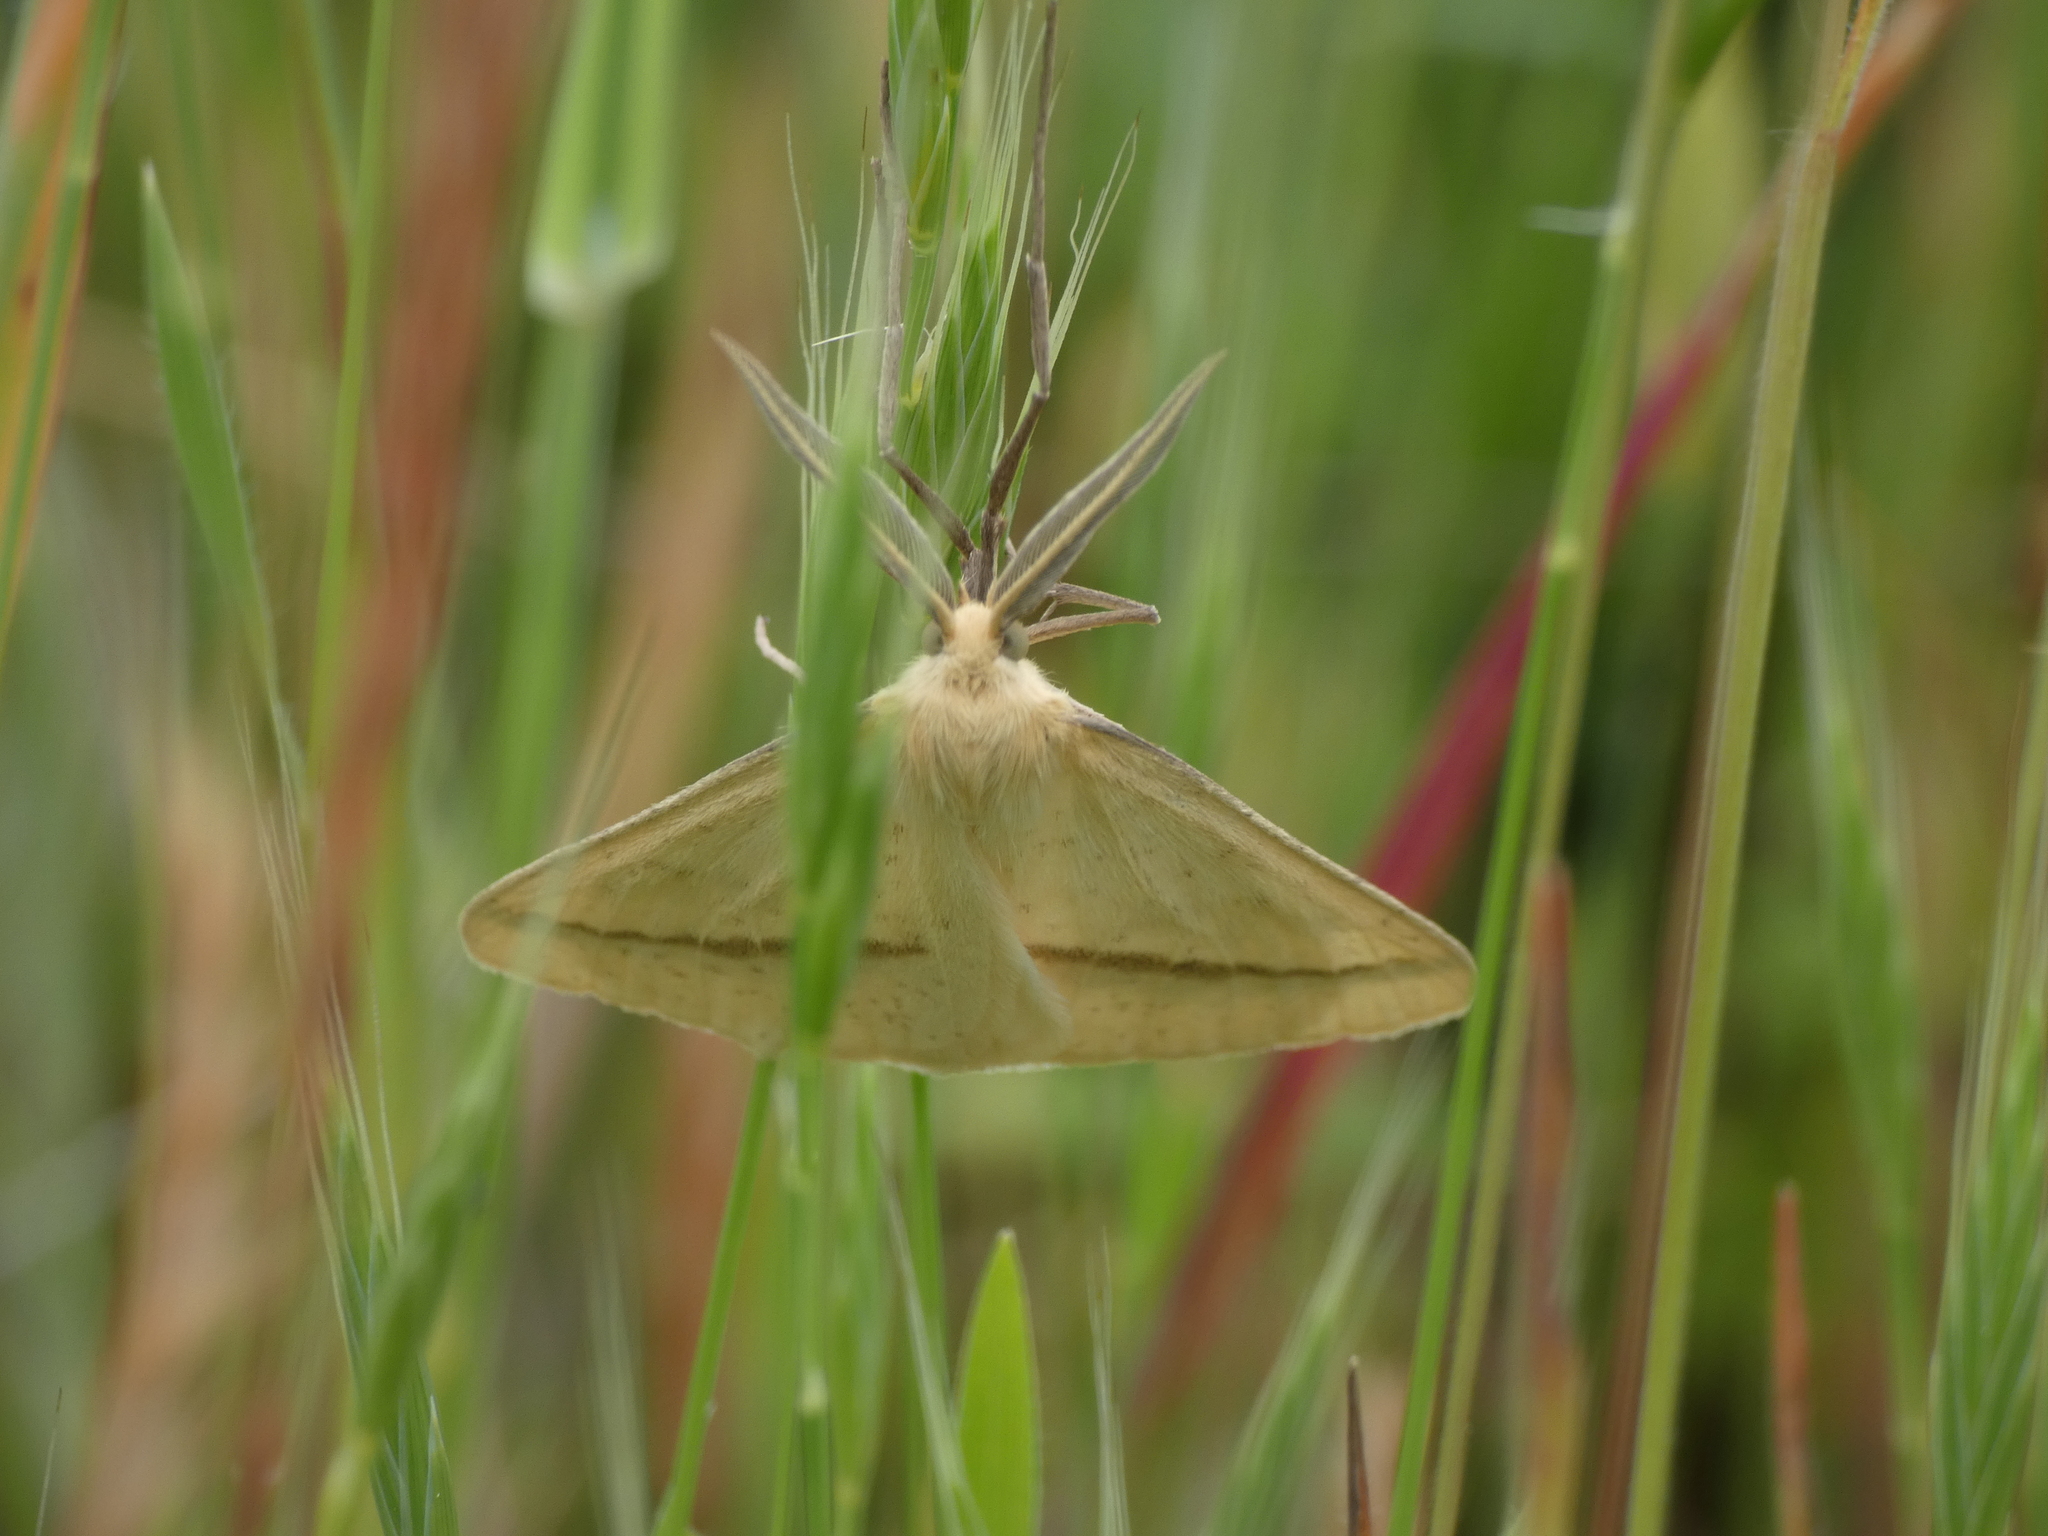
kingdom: Animalia
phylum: Arthropoda
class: Insecta
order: Lepidoptera
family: Geometridae
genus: Aspitates
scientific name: Aspitates ochrearia
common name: Yellow belle
